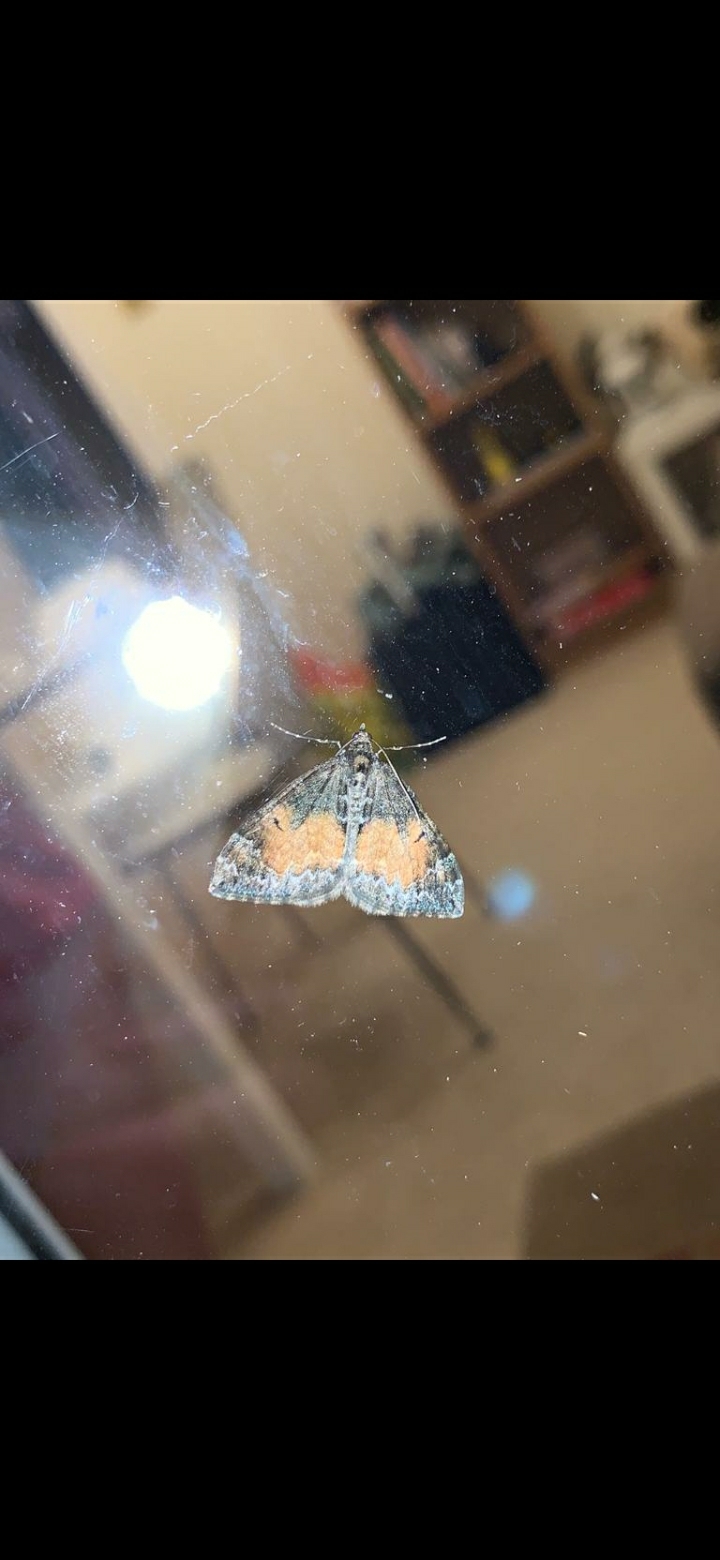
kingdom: Animalia
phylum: Arthropoda
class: Insecta
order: Lepidoptera
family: Geometridae
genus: Dysstroma
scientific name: Dysstroma truncata
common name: Common marbled carpet
